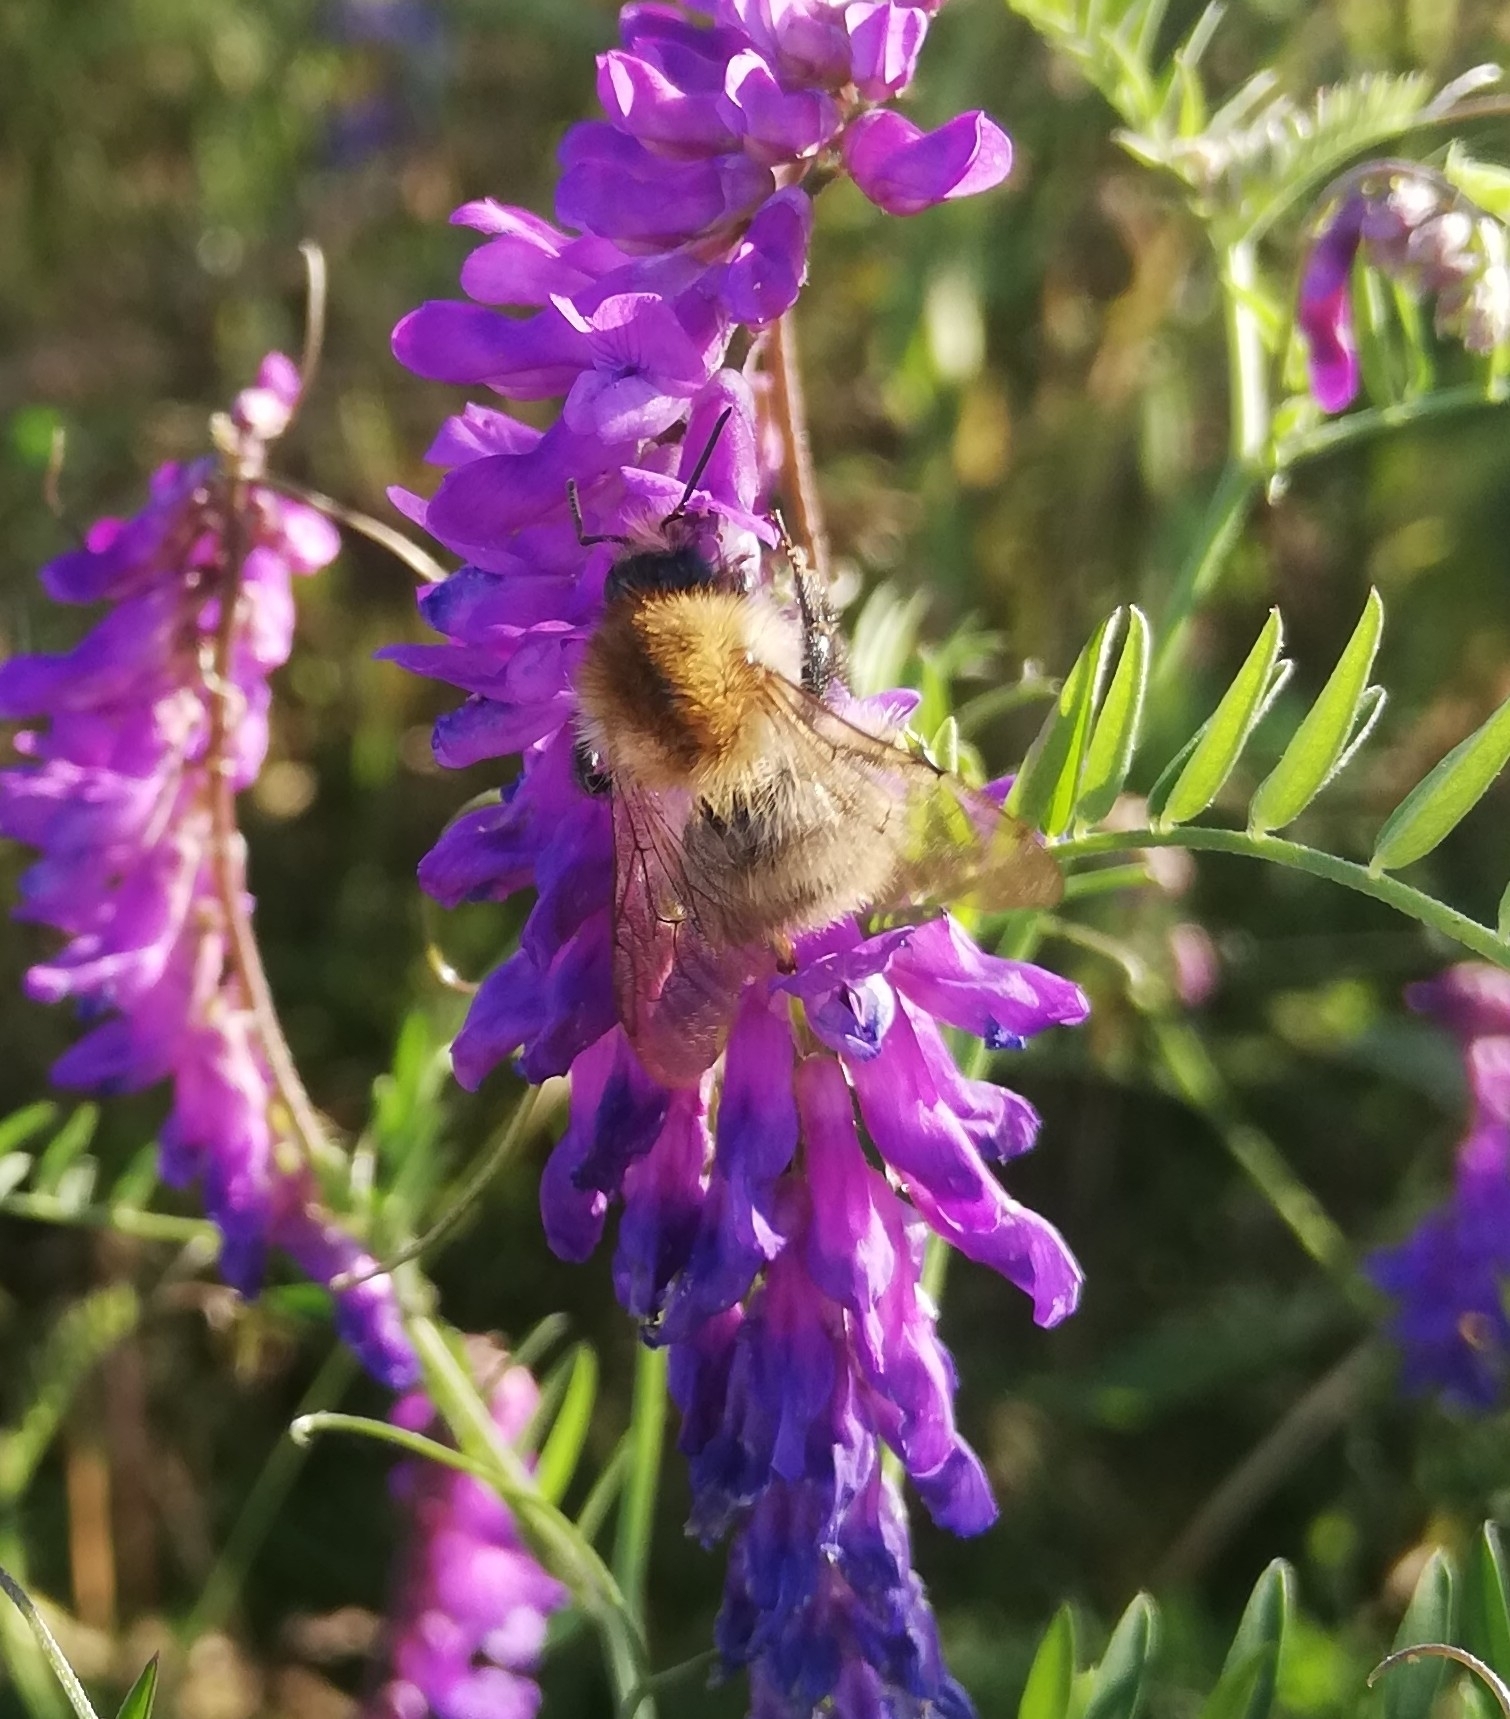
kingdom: Animalia
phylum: Arthropoda
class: Insecta
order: Hymenoptera
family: Apidae
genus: Bombus
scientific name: Bombus pascuorum
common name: Common carder bee
